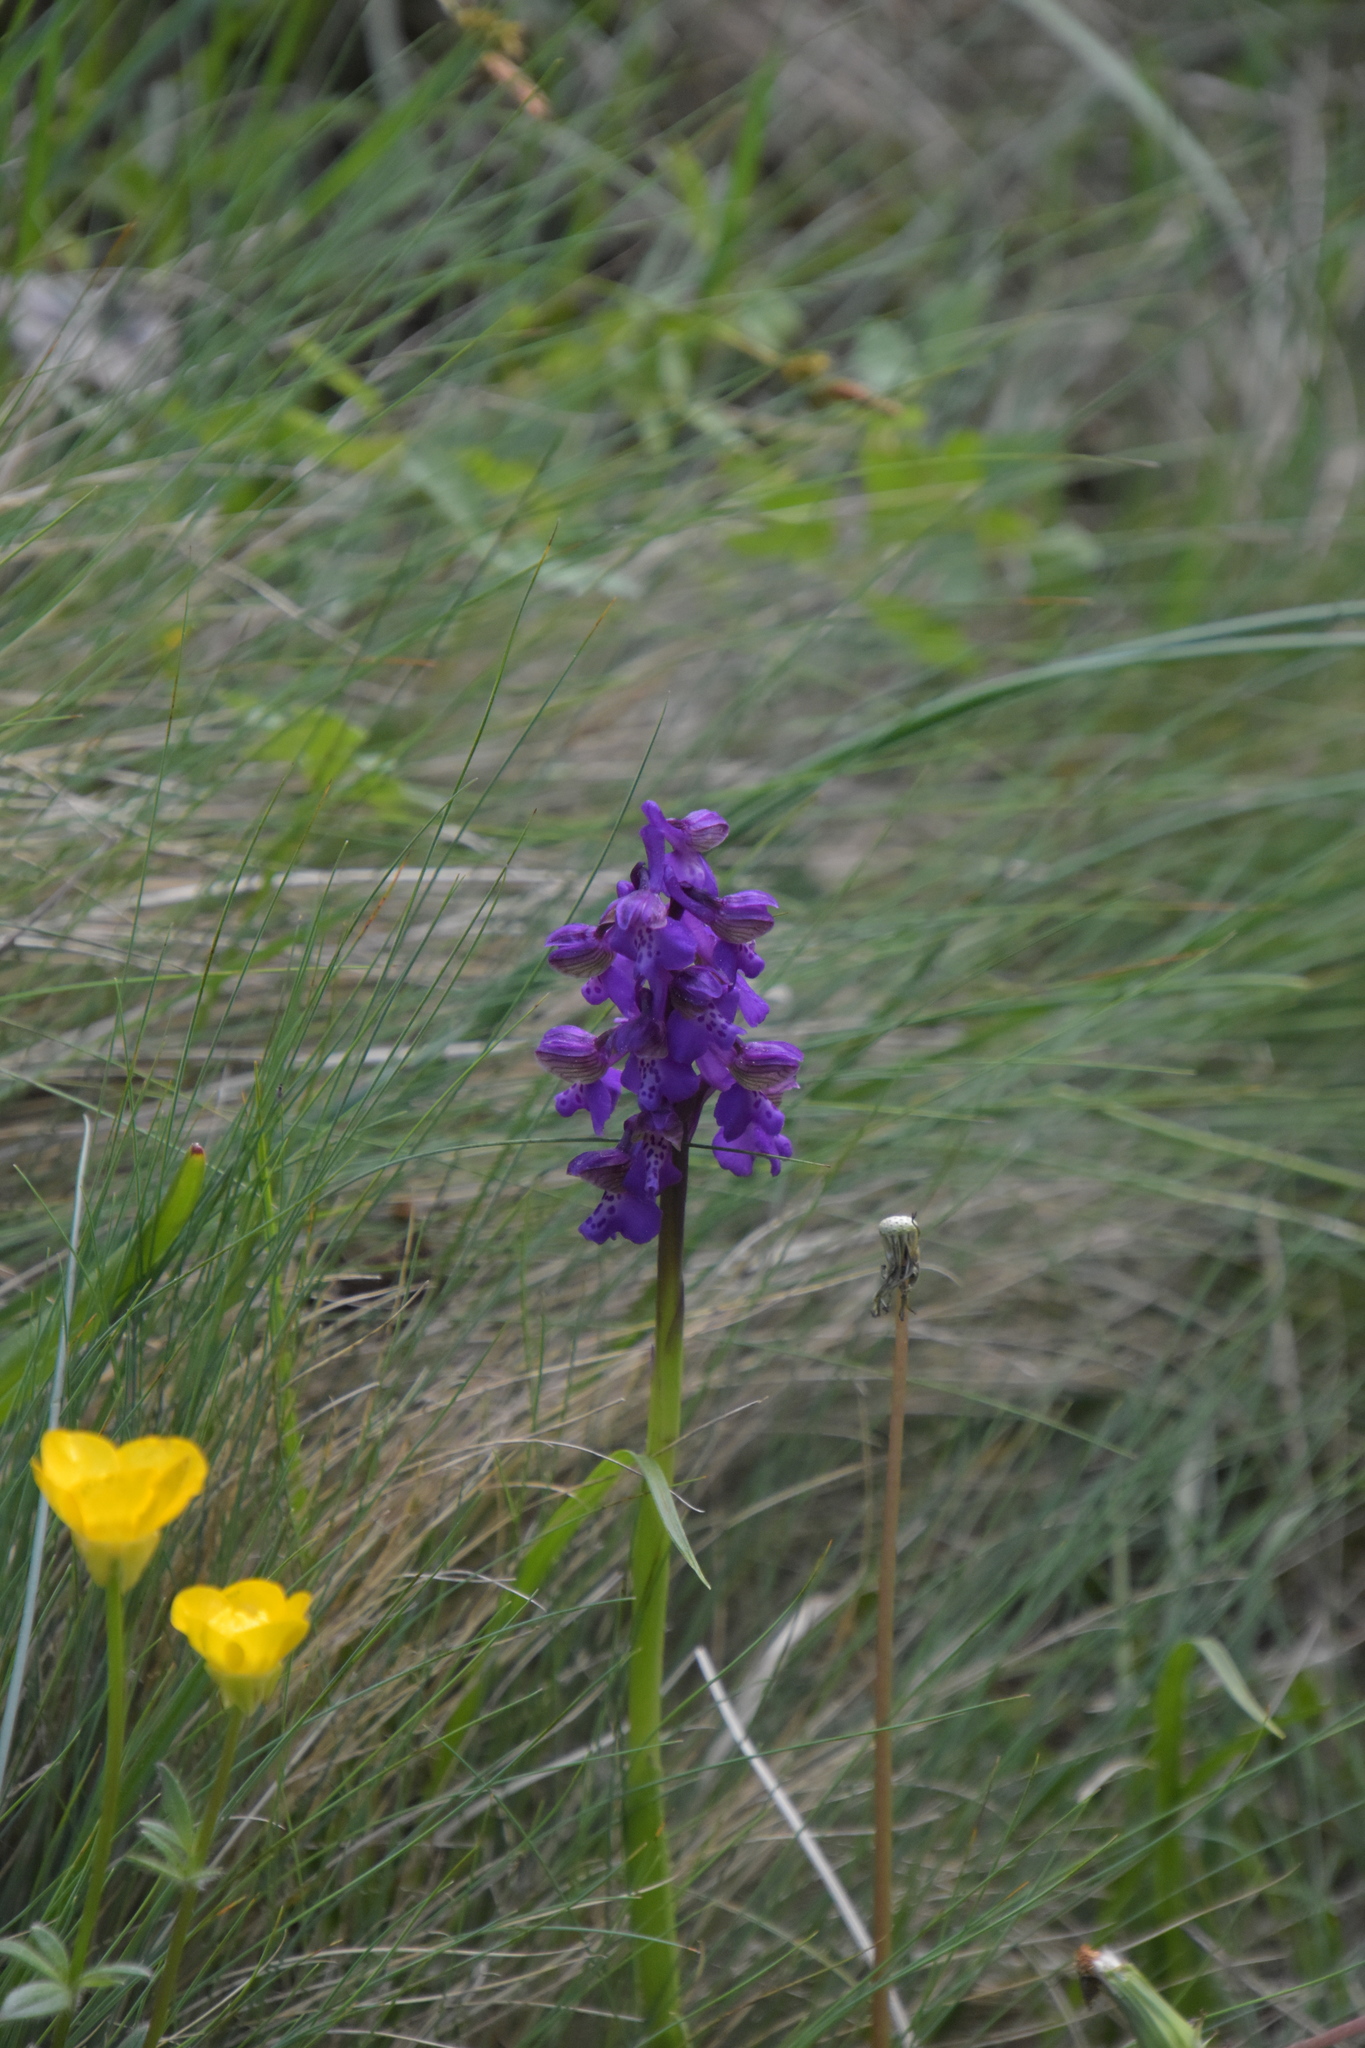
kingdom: Plantae
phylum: Tracheophyta
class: Liliopsida
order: Asparagales
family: Orchidaceae
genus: Anacamptis
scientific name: Anacamptis morio
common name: Green-winged orchid
